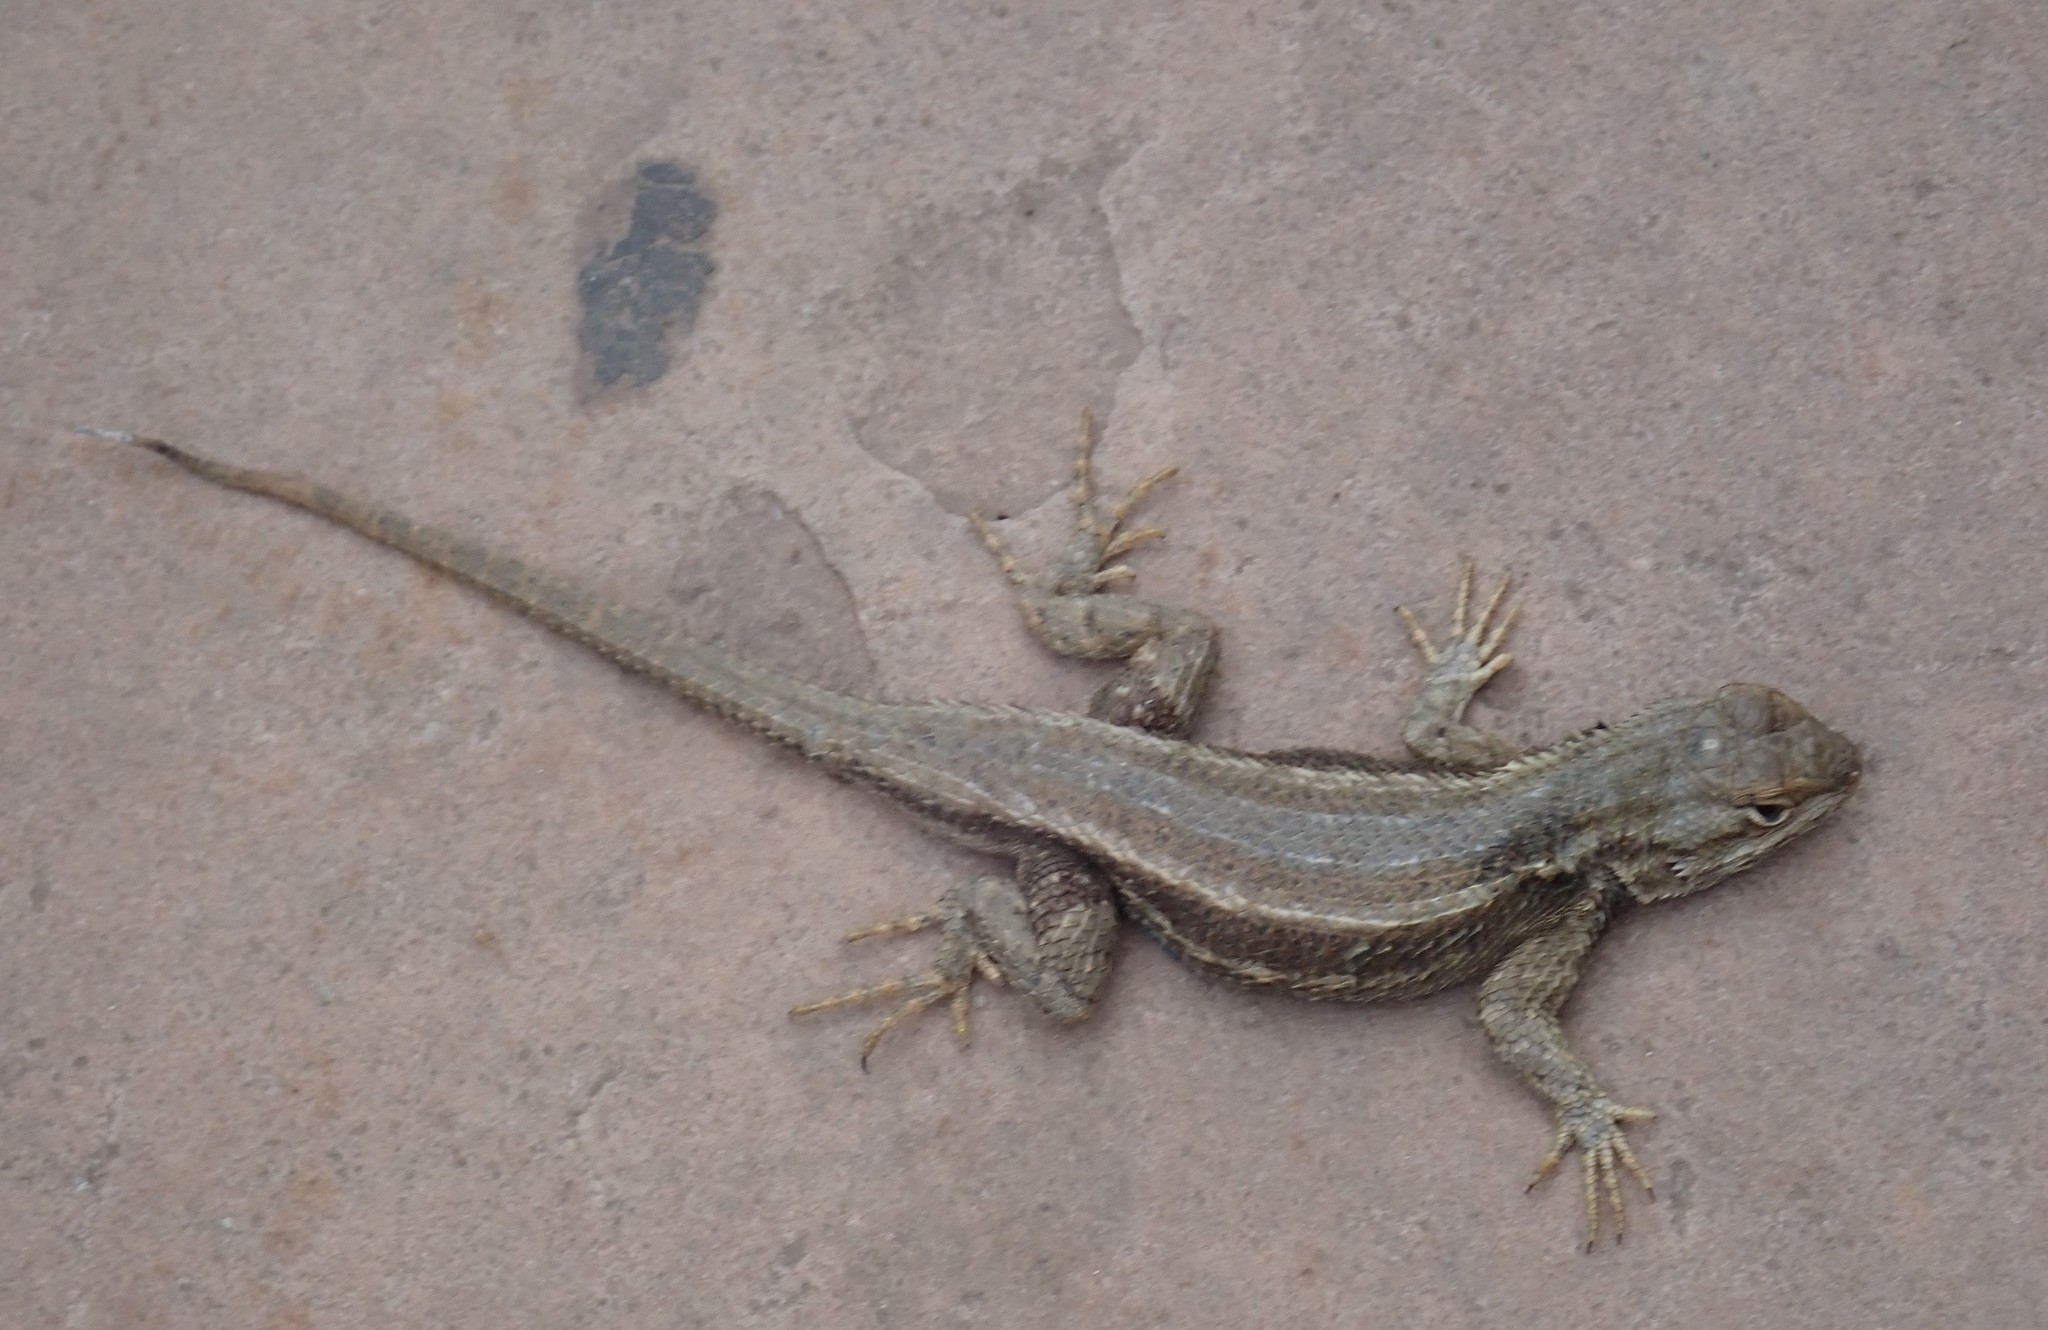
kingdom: Animalia
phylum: Chordata
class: Squamata
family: Phrynosomatidae
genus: Sceloporus
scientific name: Sceloporus tristichus
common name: Plateau fence lizard
